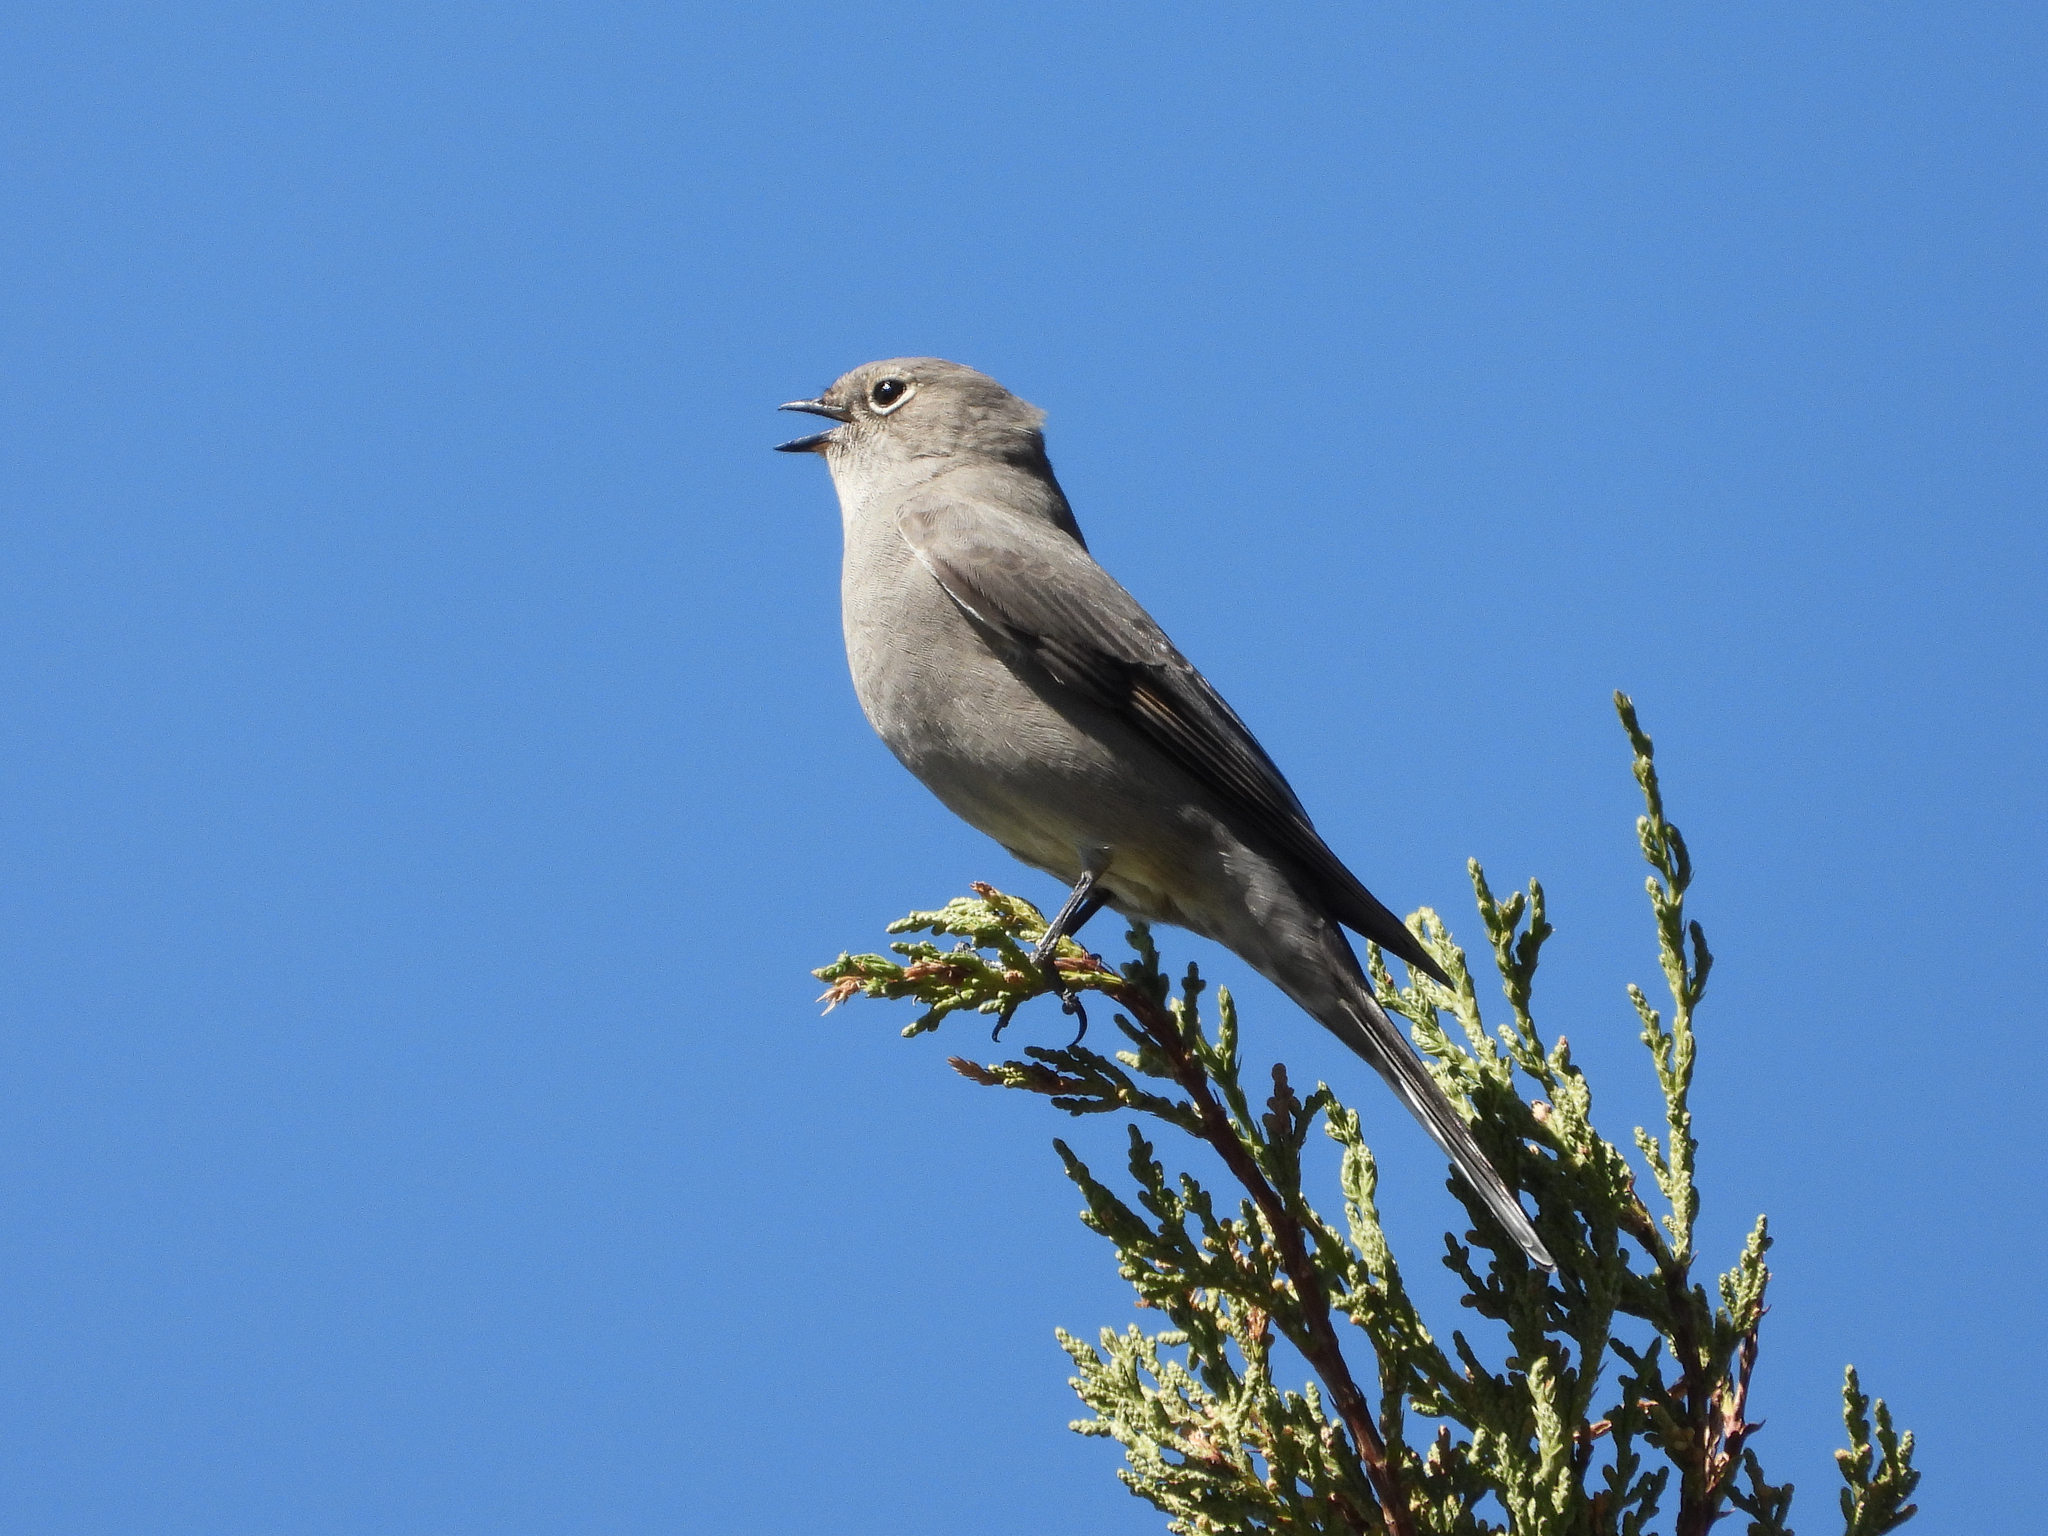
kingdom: Animalia
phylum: Chordata
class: Aves
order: Passeriformes
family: Turdidae
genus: Myadestes
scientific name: Myadestes townsendi
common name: Townsend's solitaire
